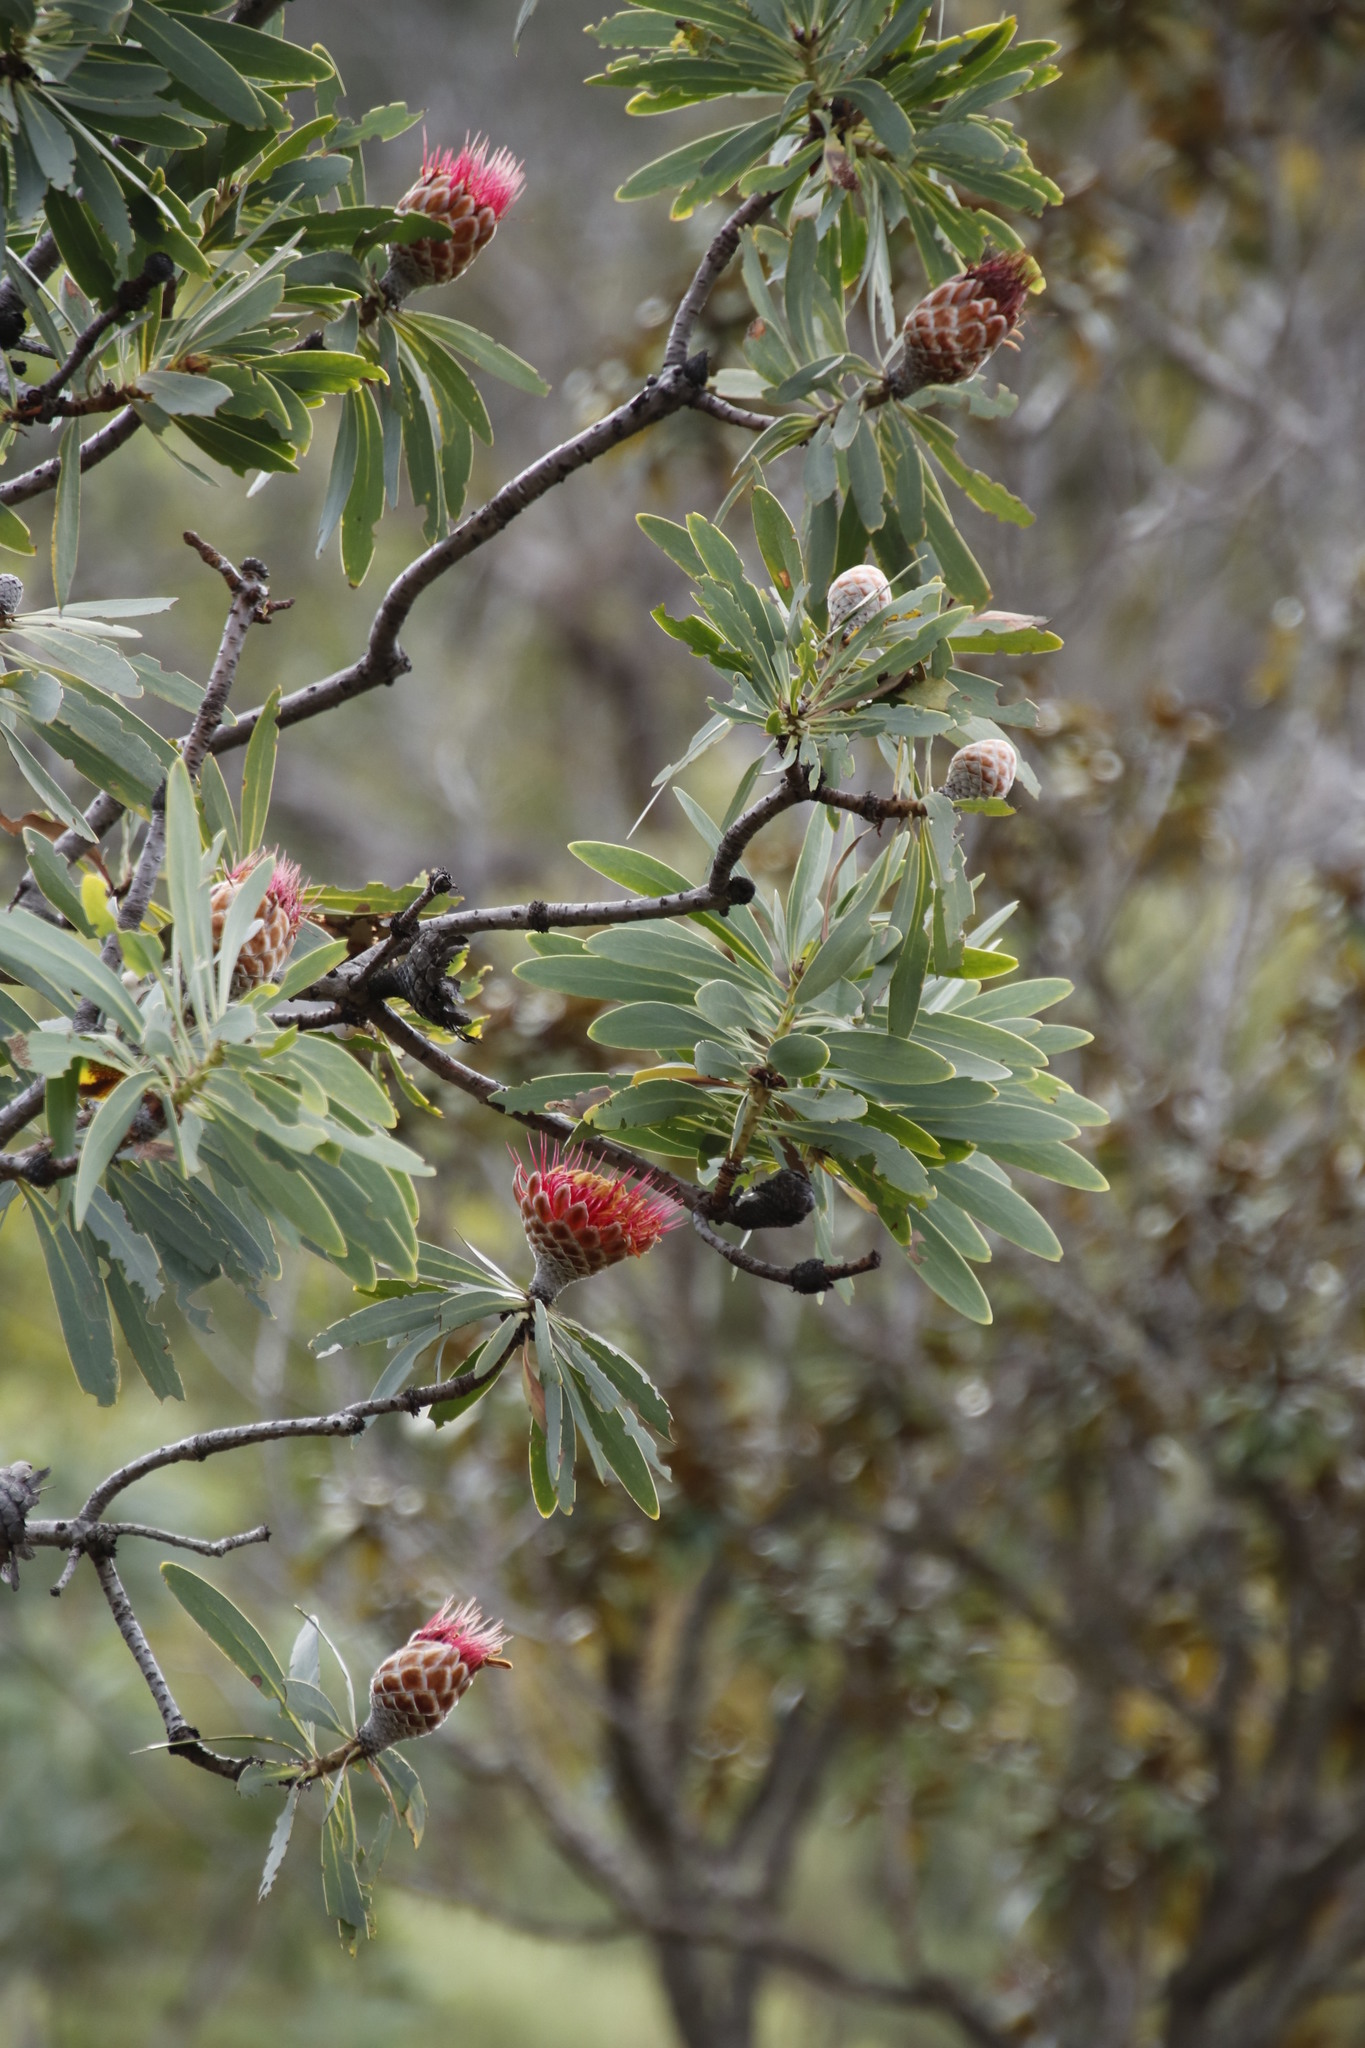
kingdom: Plantae
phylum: Tracheophyta
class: Magnoliopsida
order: Proteales
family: Proteaceae
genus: Protea
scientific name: Protea laetans
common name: Blyde protea
